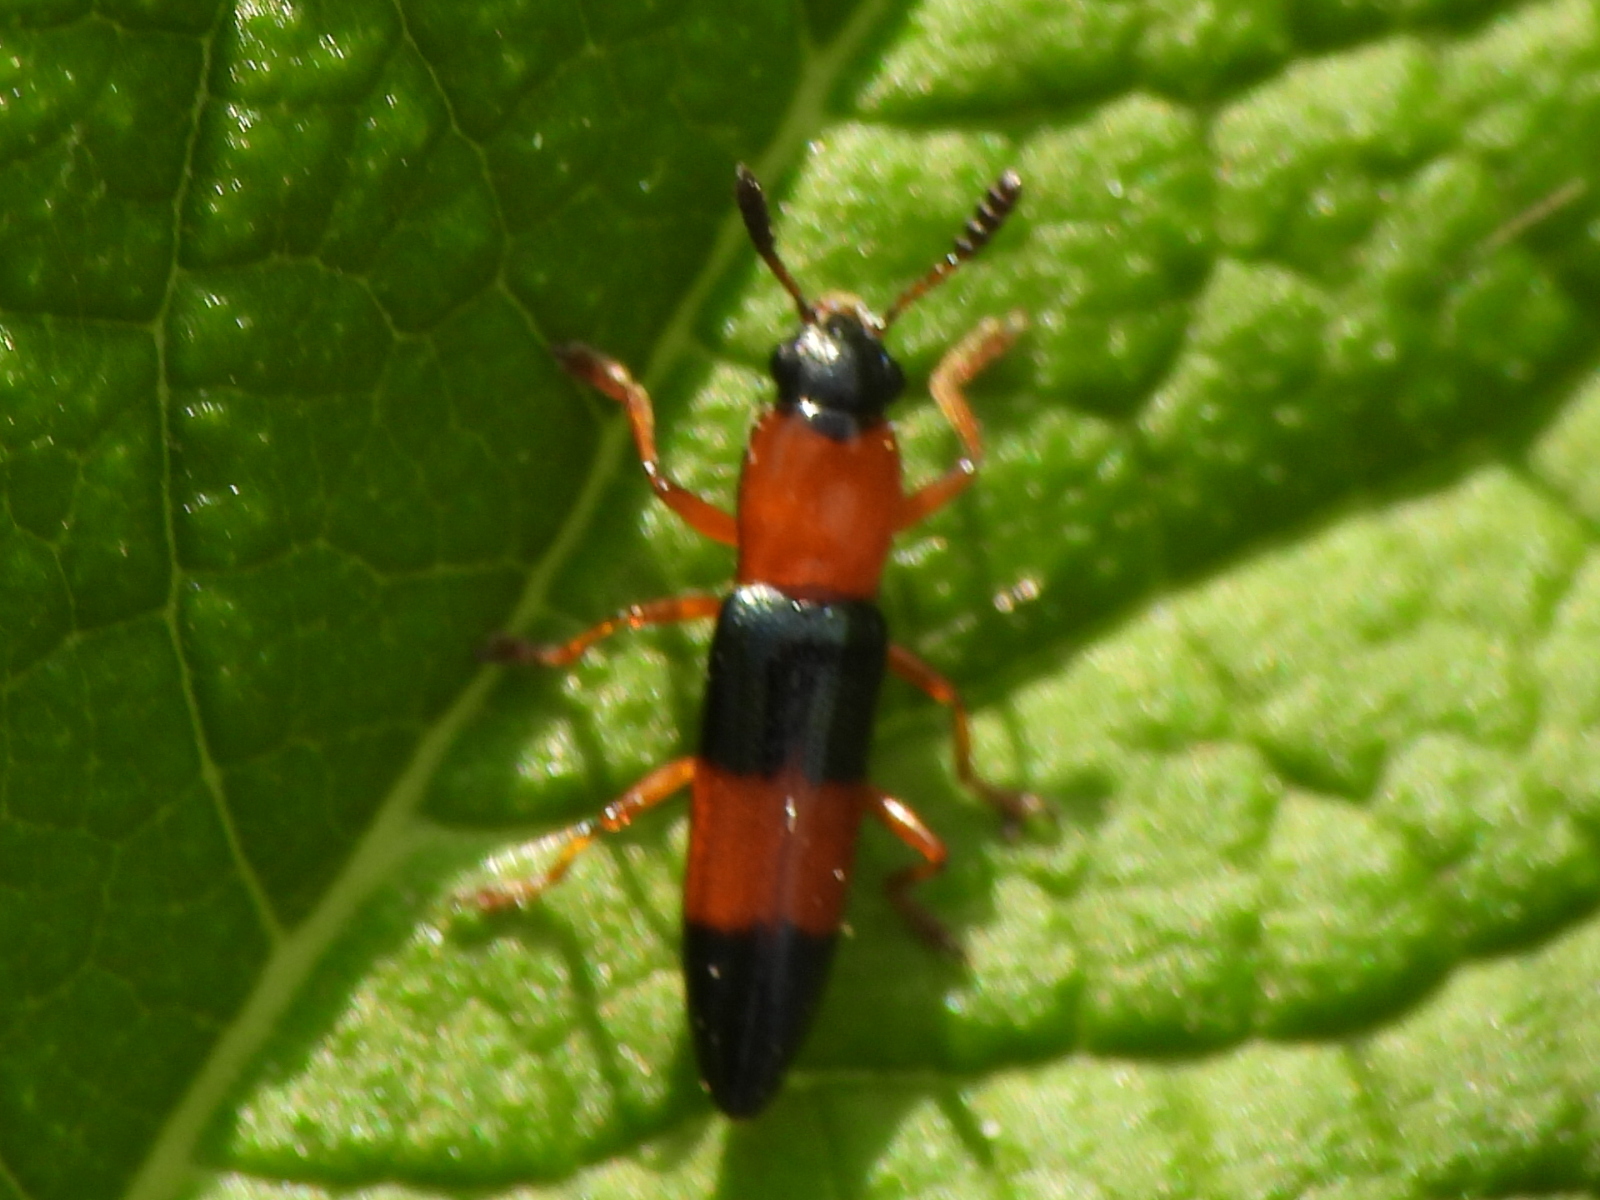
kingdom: Animalia
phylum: Arthropoda
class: Insecta
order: Coleoptera
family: Erotylidae
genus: Languria
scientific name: Languria trifasciata
